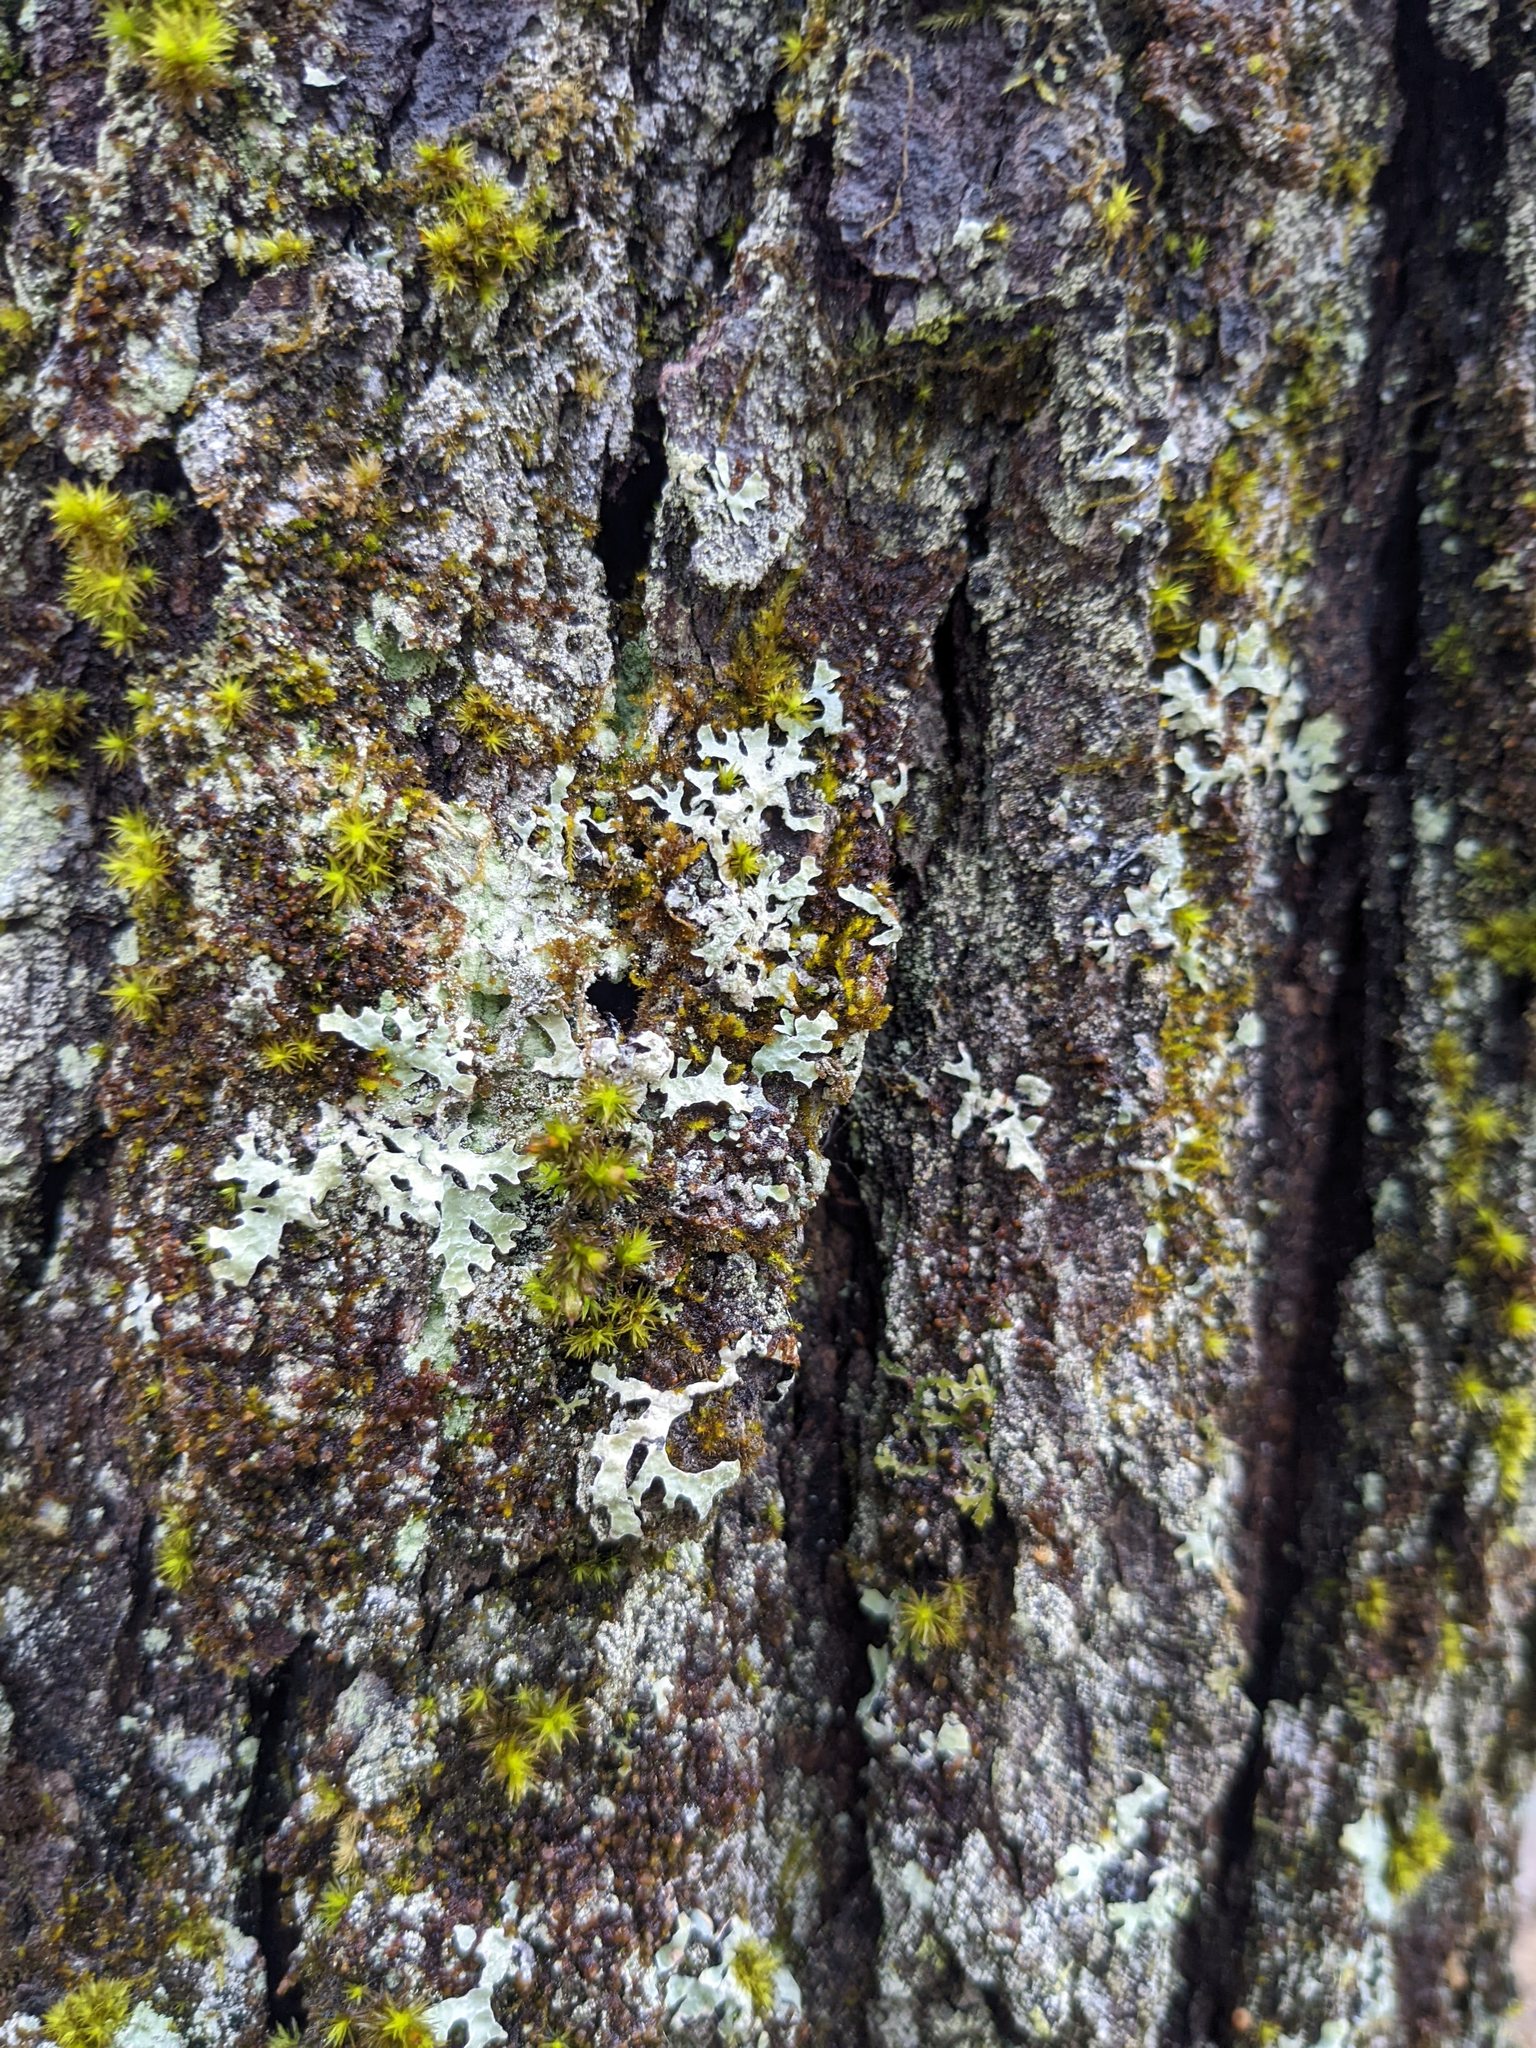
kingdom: Plantae
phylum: Bryophyta
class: Bryopsida
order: Orthotrichales
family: Orthotrichaceae
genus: Ulota
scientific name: Ulota crispa
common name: Crisped pincushion moss
